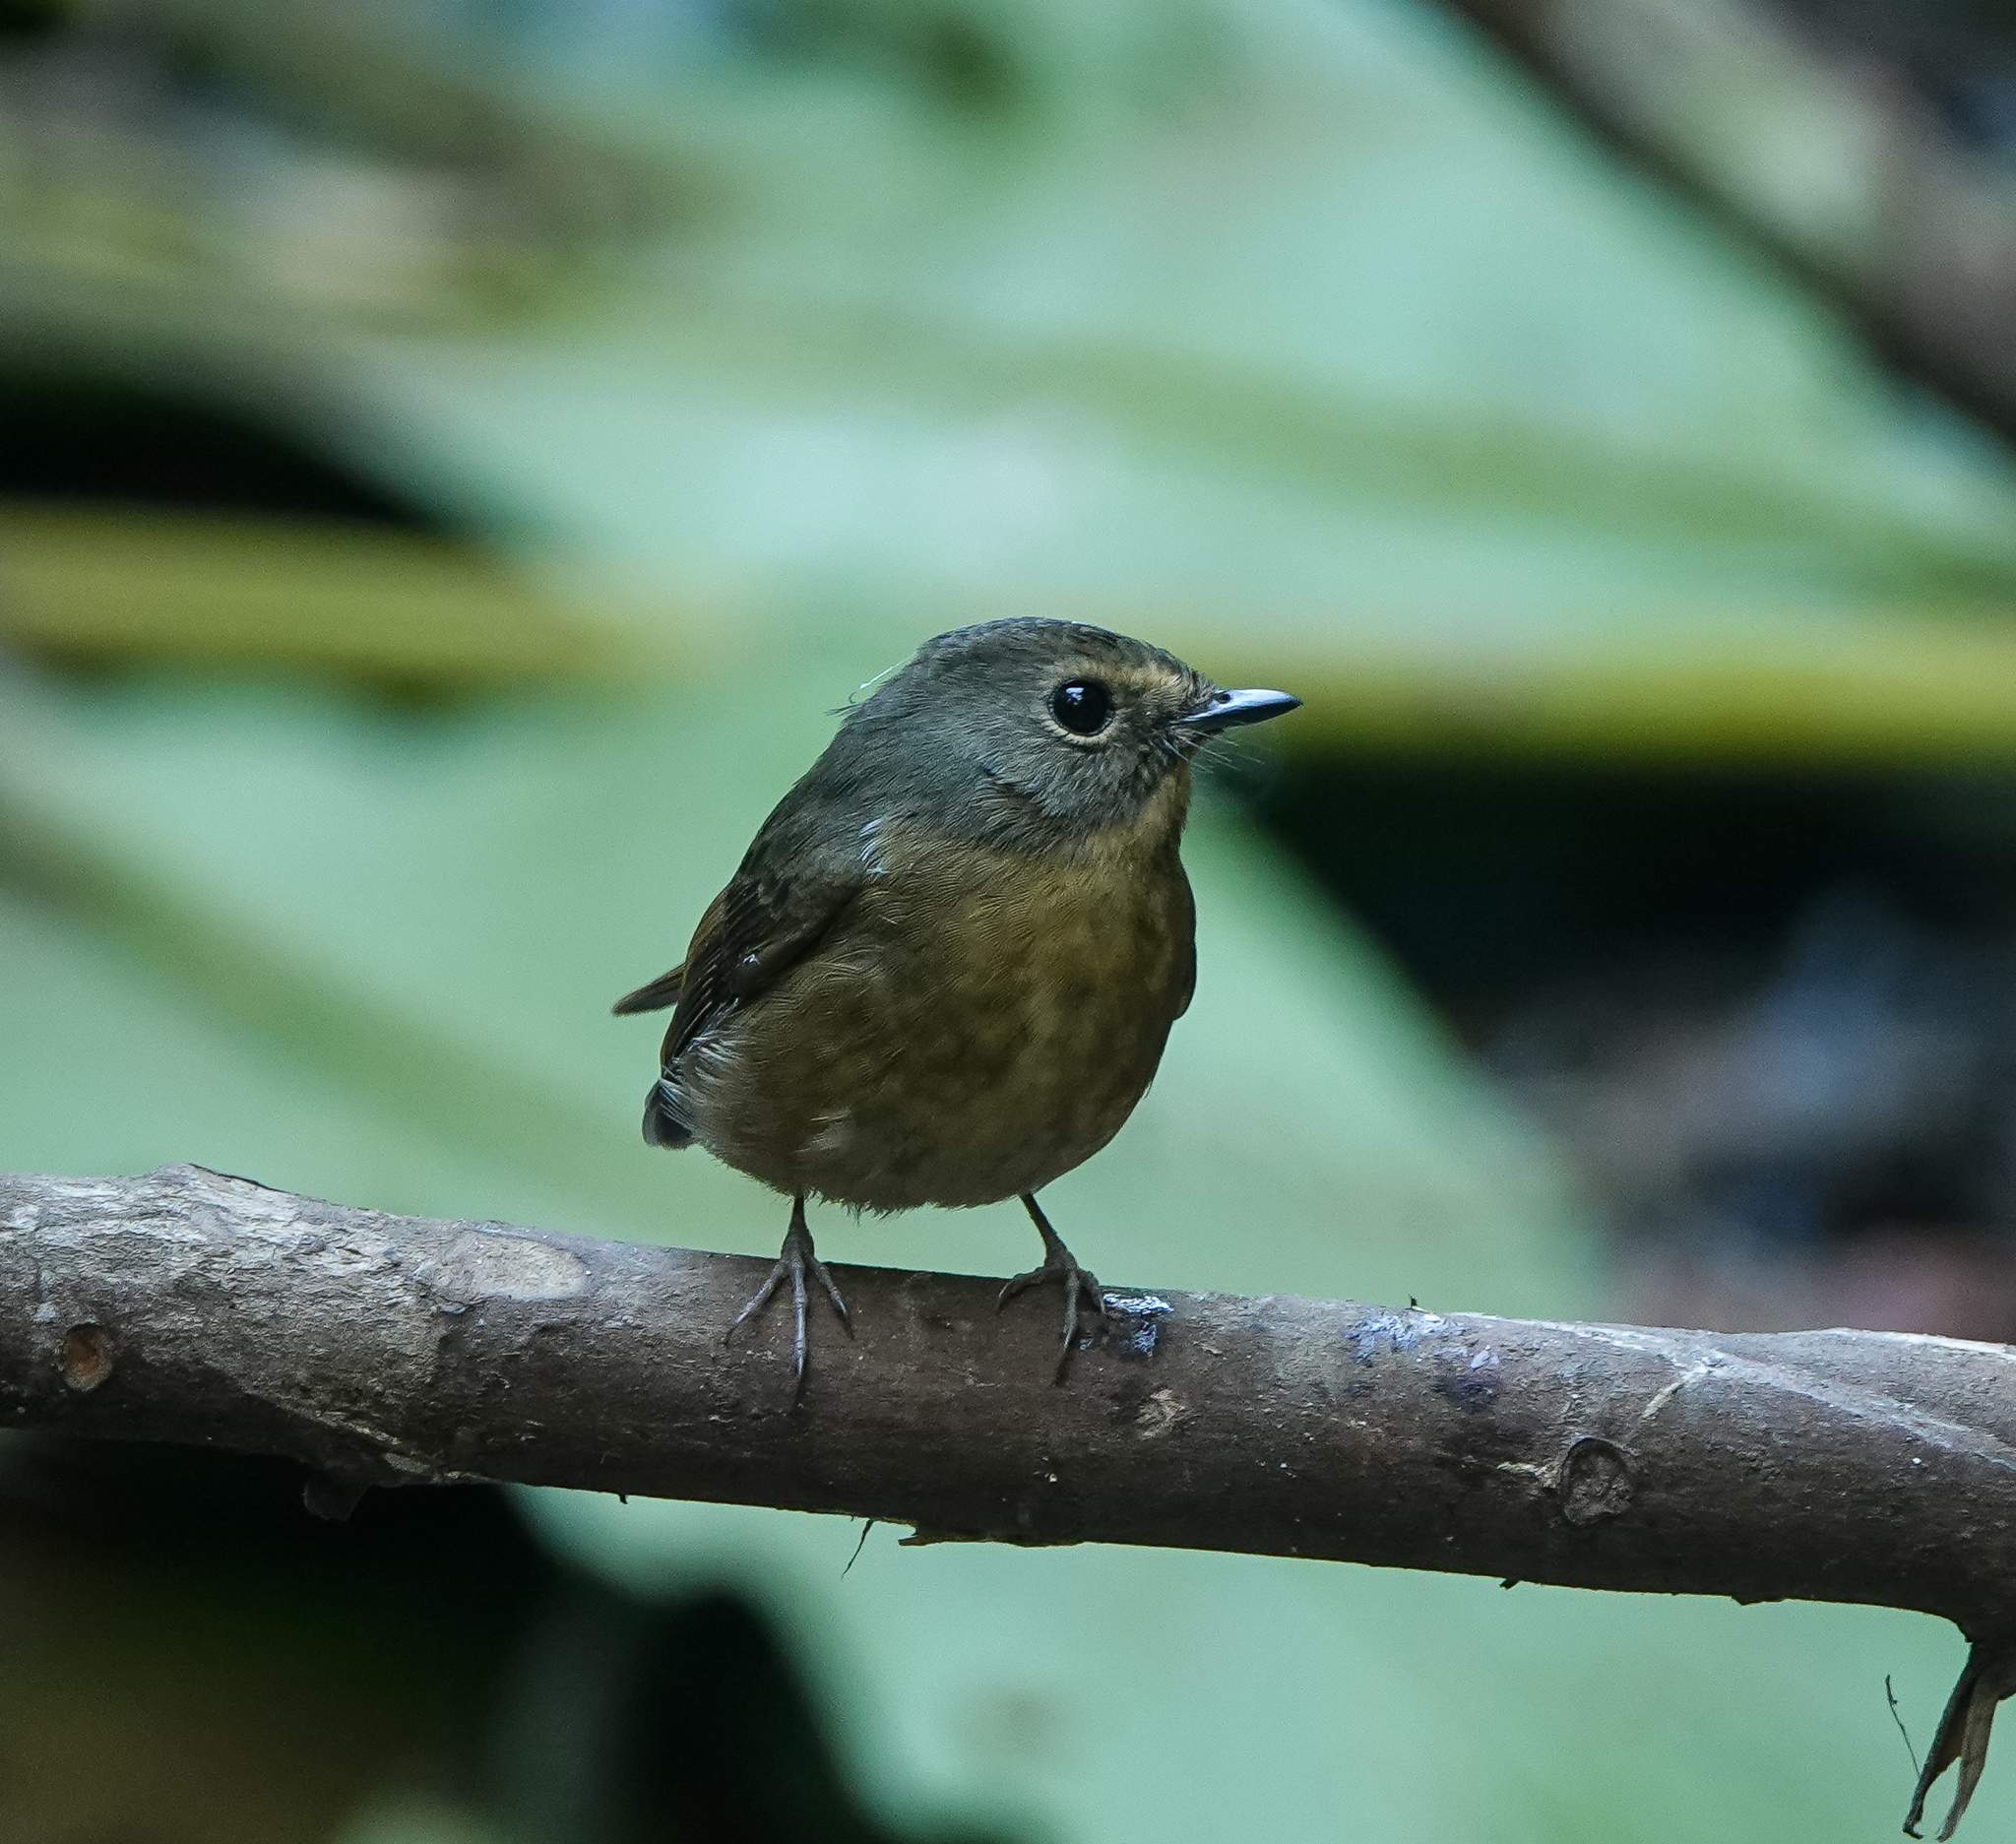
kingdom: Animalia
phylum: Chordata
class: Aves
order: Passeriformes
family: Muscicapidae
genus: Ficedula
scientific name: Ficedula hyperythra
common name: Snowy-browed flycatcher
